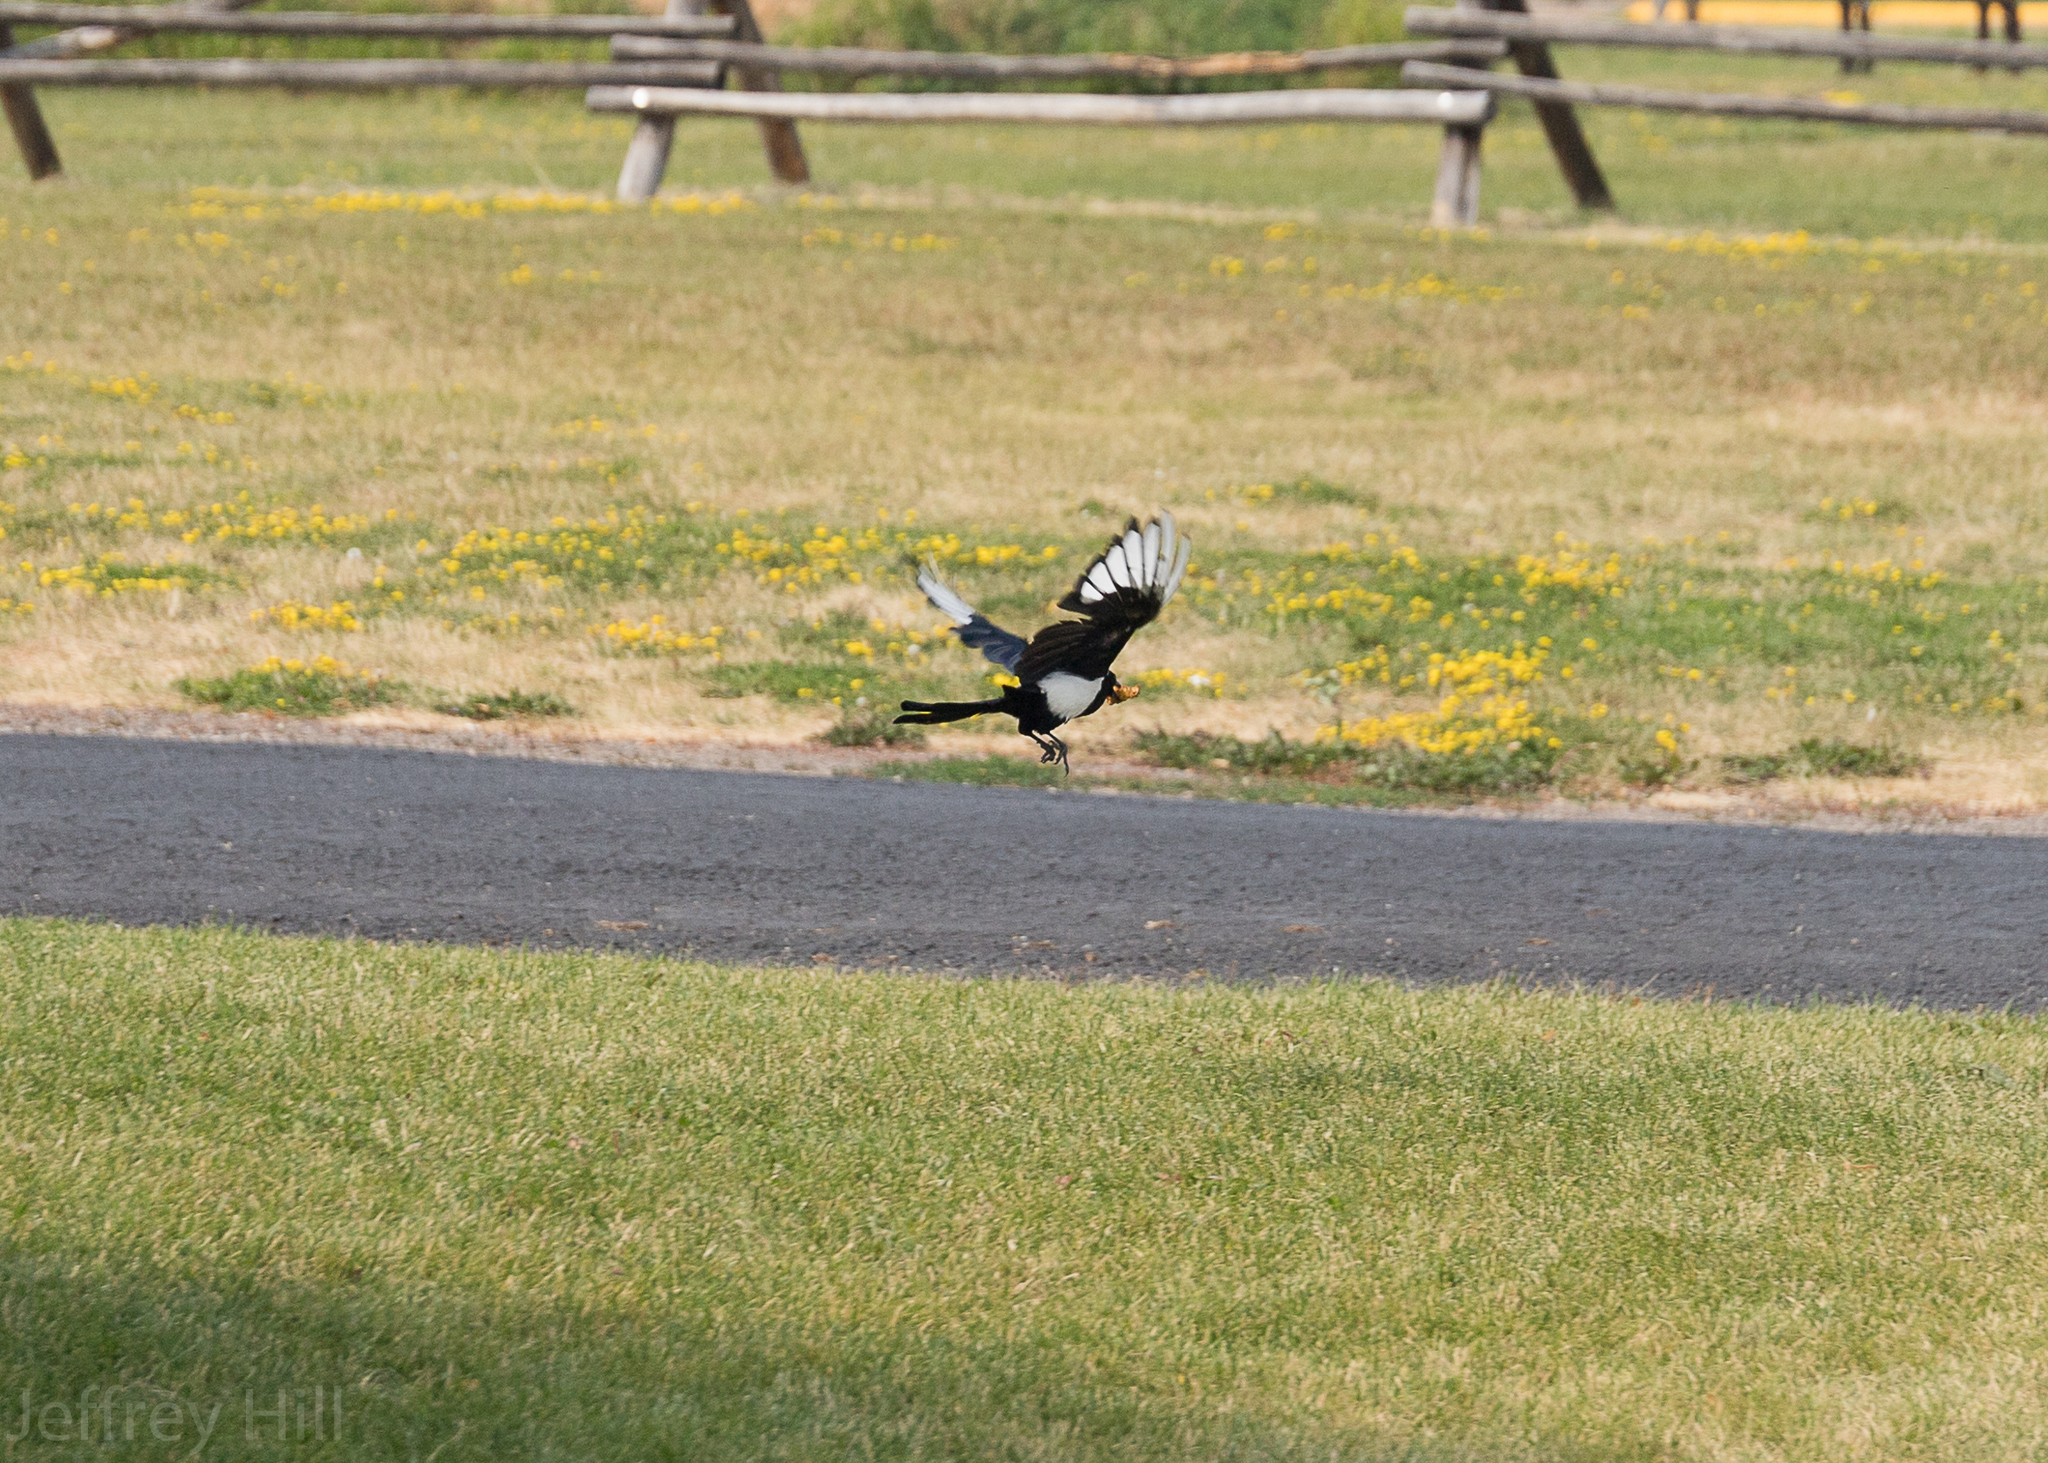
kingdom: Animalia
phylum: Chordata
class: Aves
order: Passeriformes
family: Corvidae
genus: Pica
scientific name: Pica hudsonia
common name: Black-billed magpie
